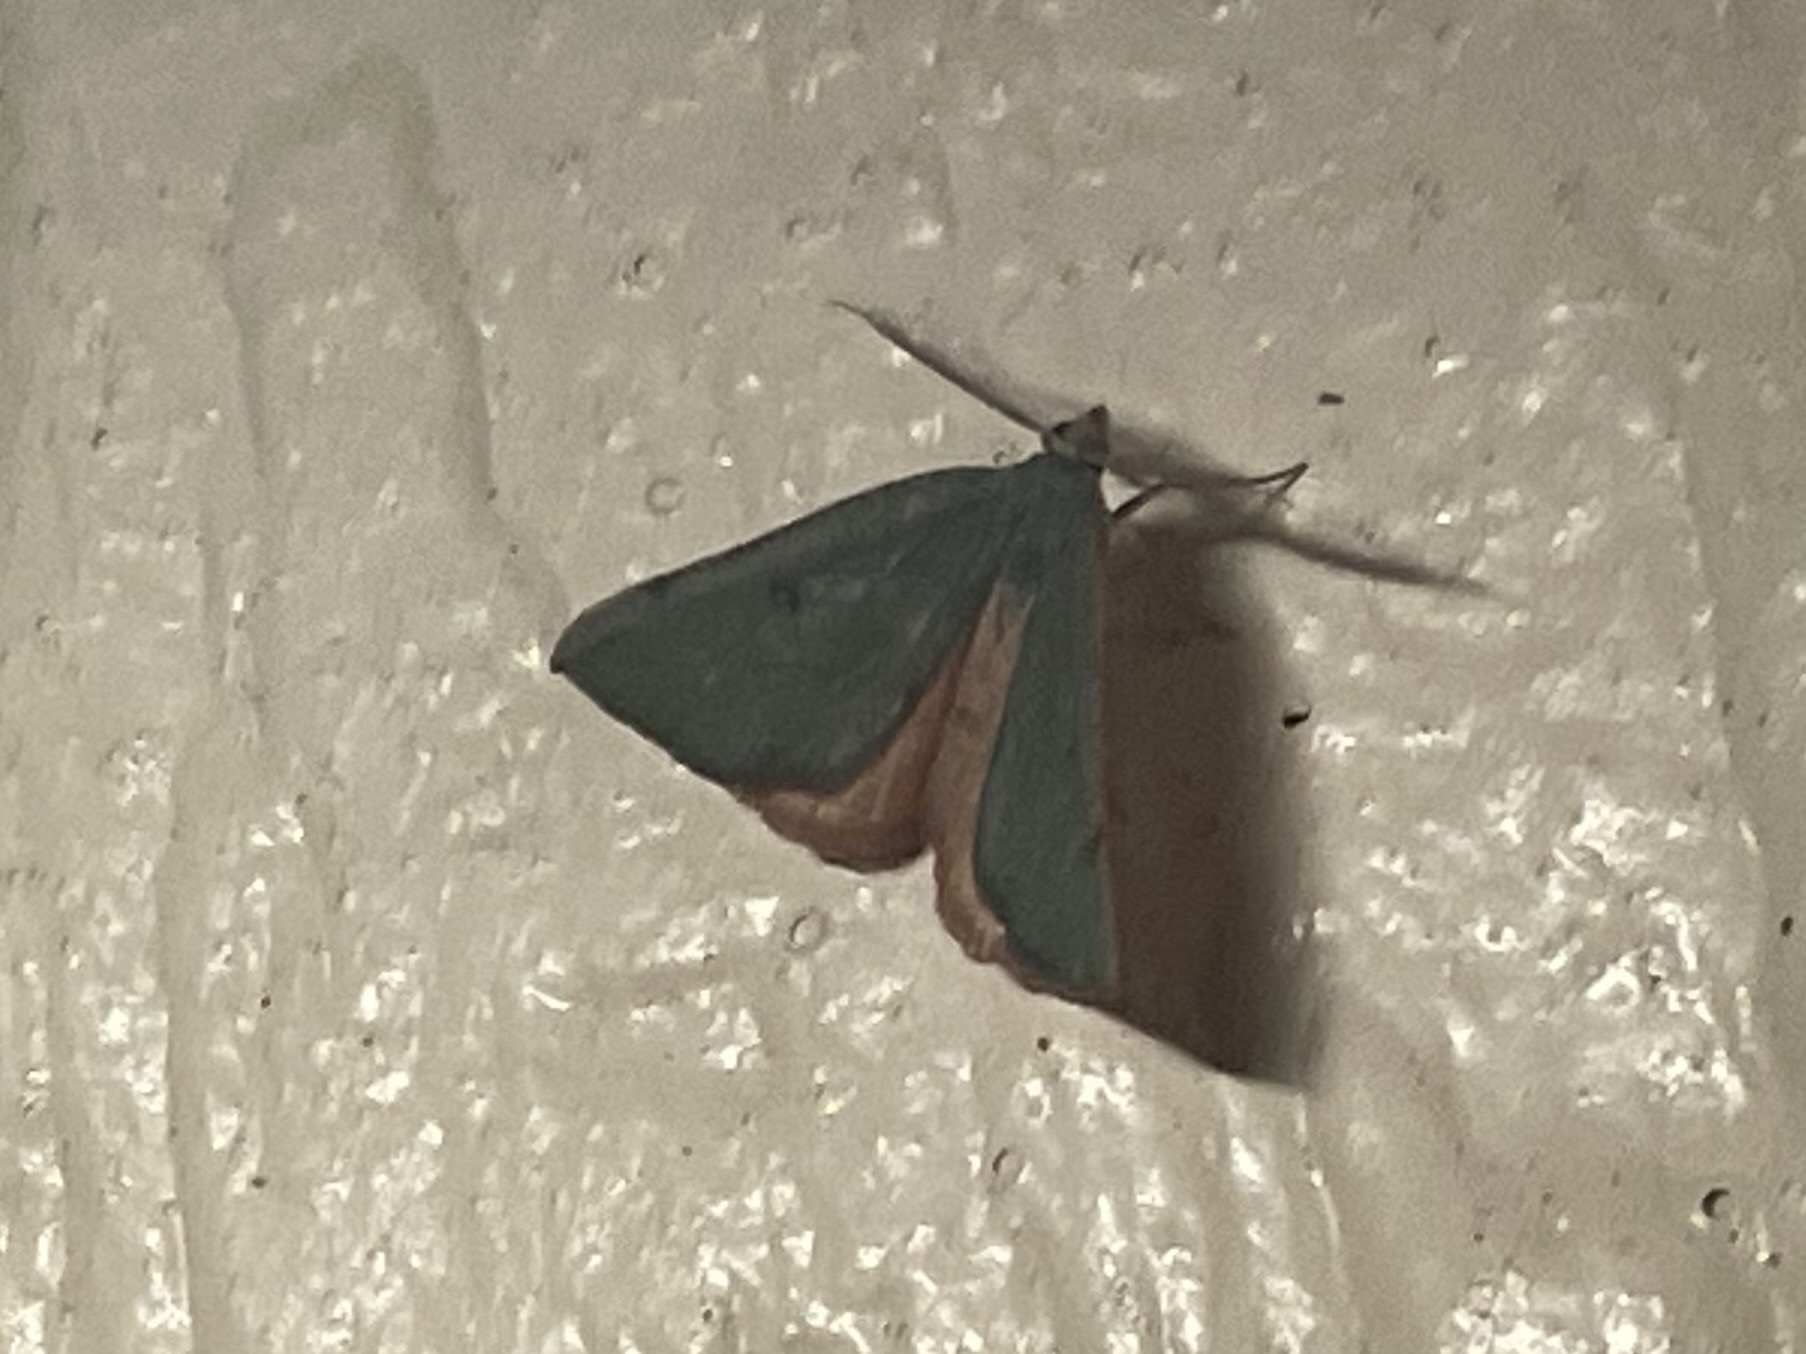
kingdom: Animalia
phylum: Arthropoda
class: Insecta
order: Lepidoptera
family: Geometridae
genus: Chloraspilates
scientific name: Chloraspilates bicoloraria
